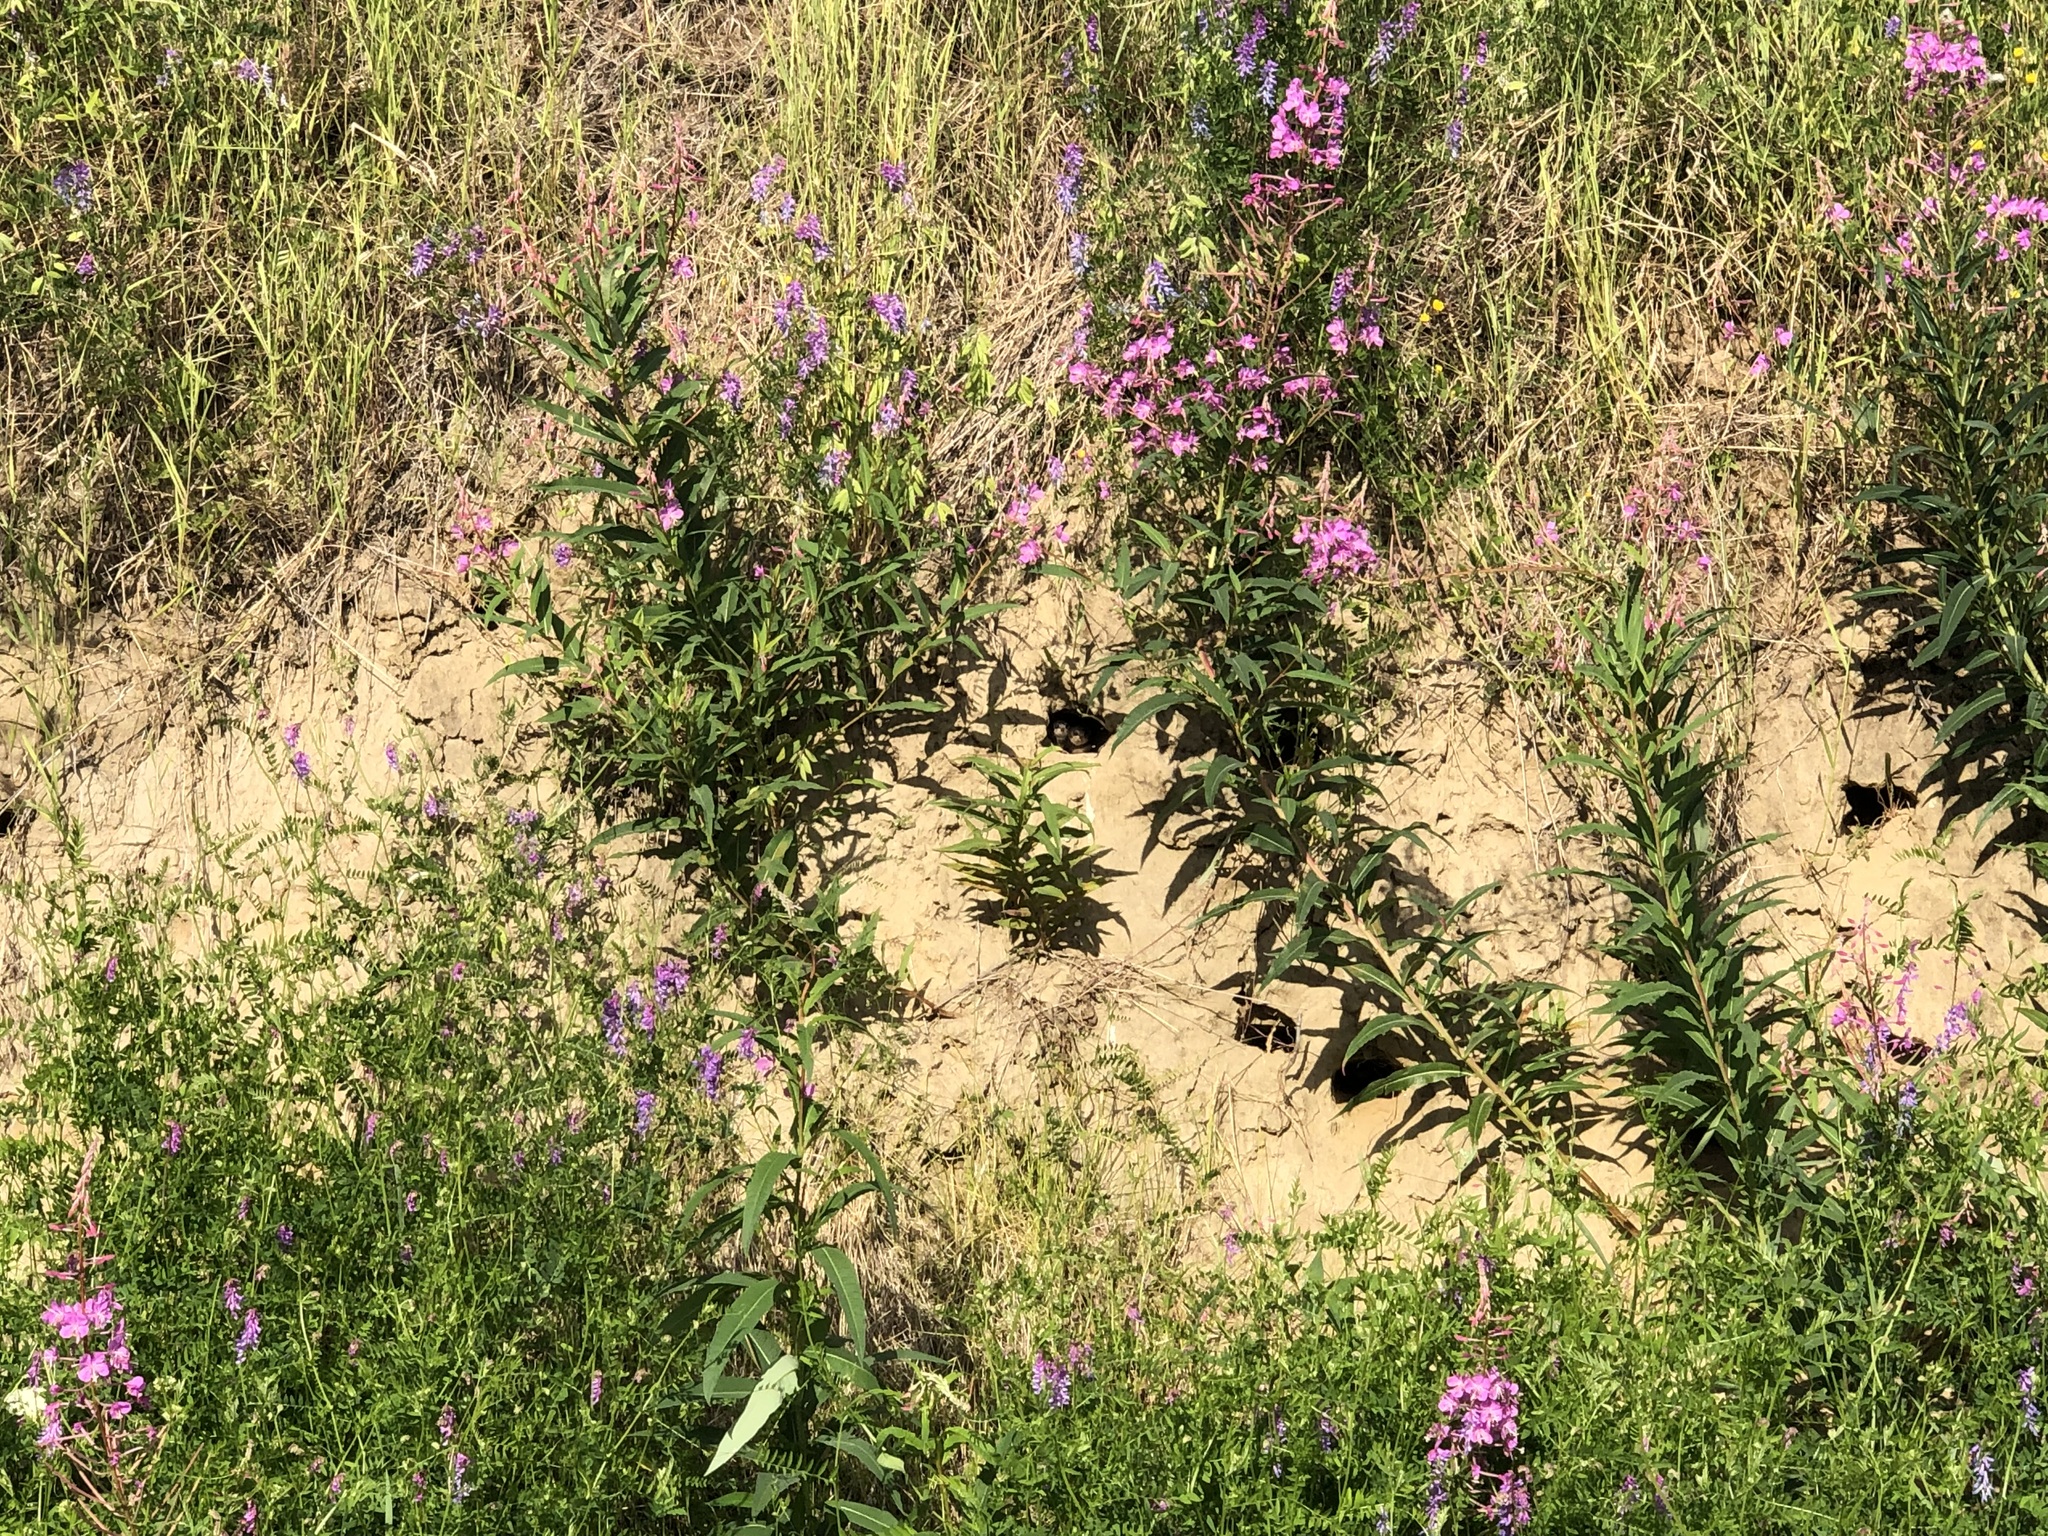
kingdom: Animalia
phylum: Chordata
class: Aves
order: Passeriformes
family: Hirundinidae
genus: Riparia
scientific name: Riparia riparia
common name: Sand martin
